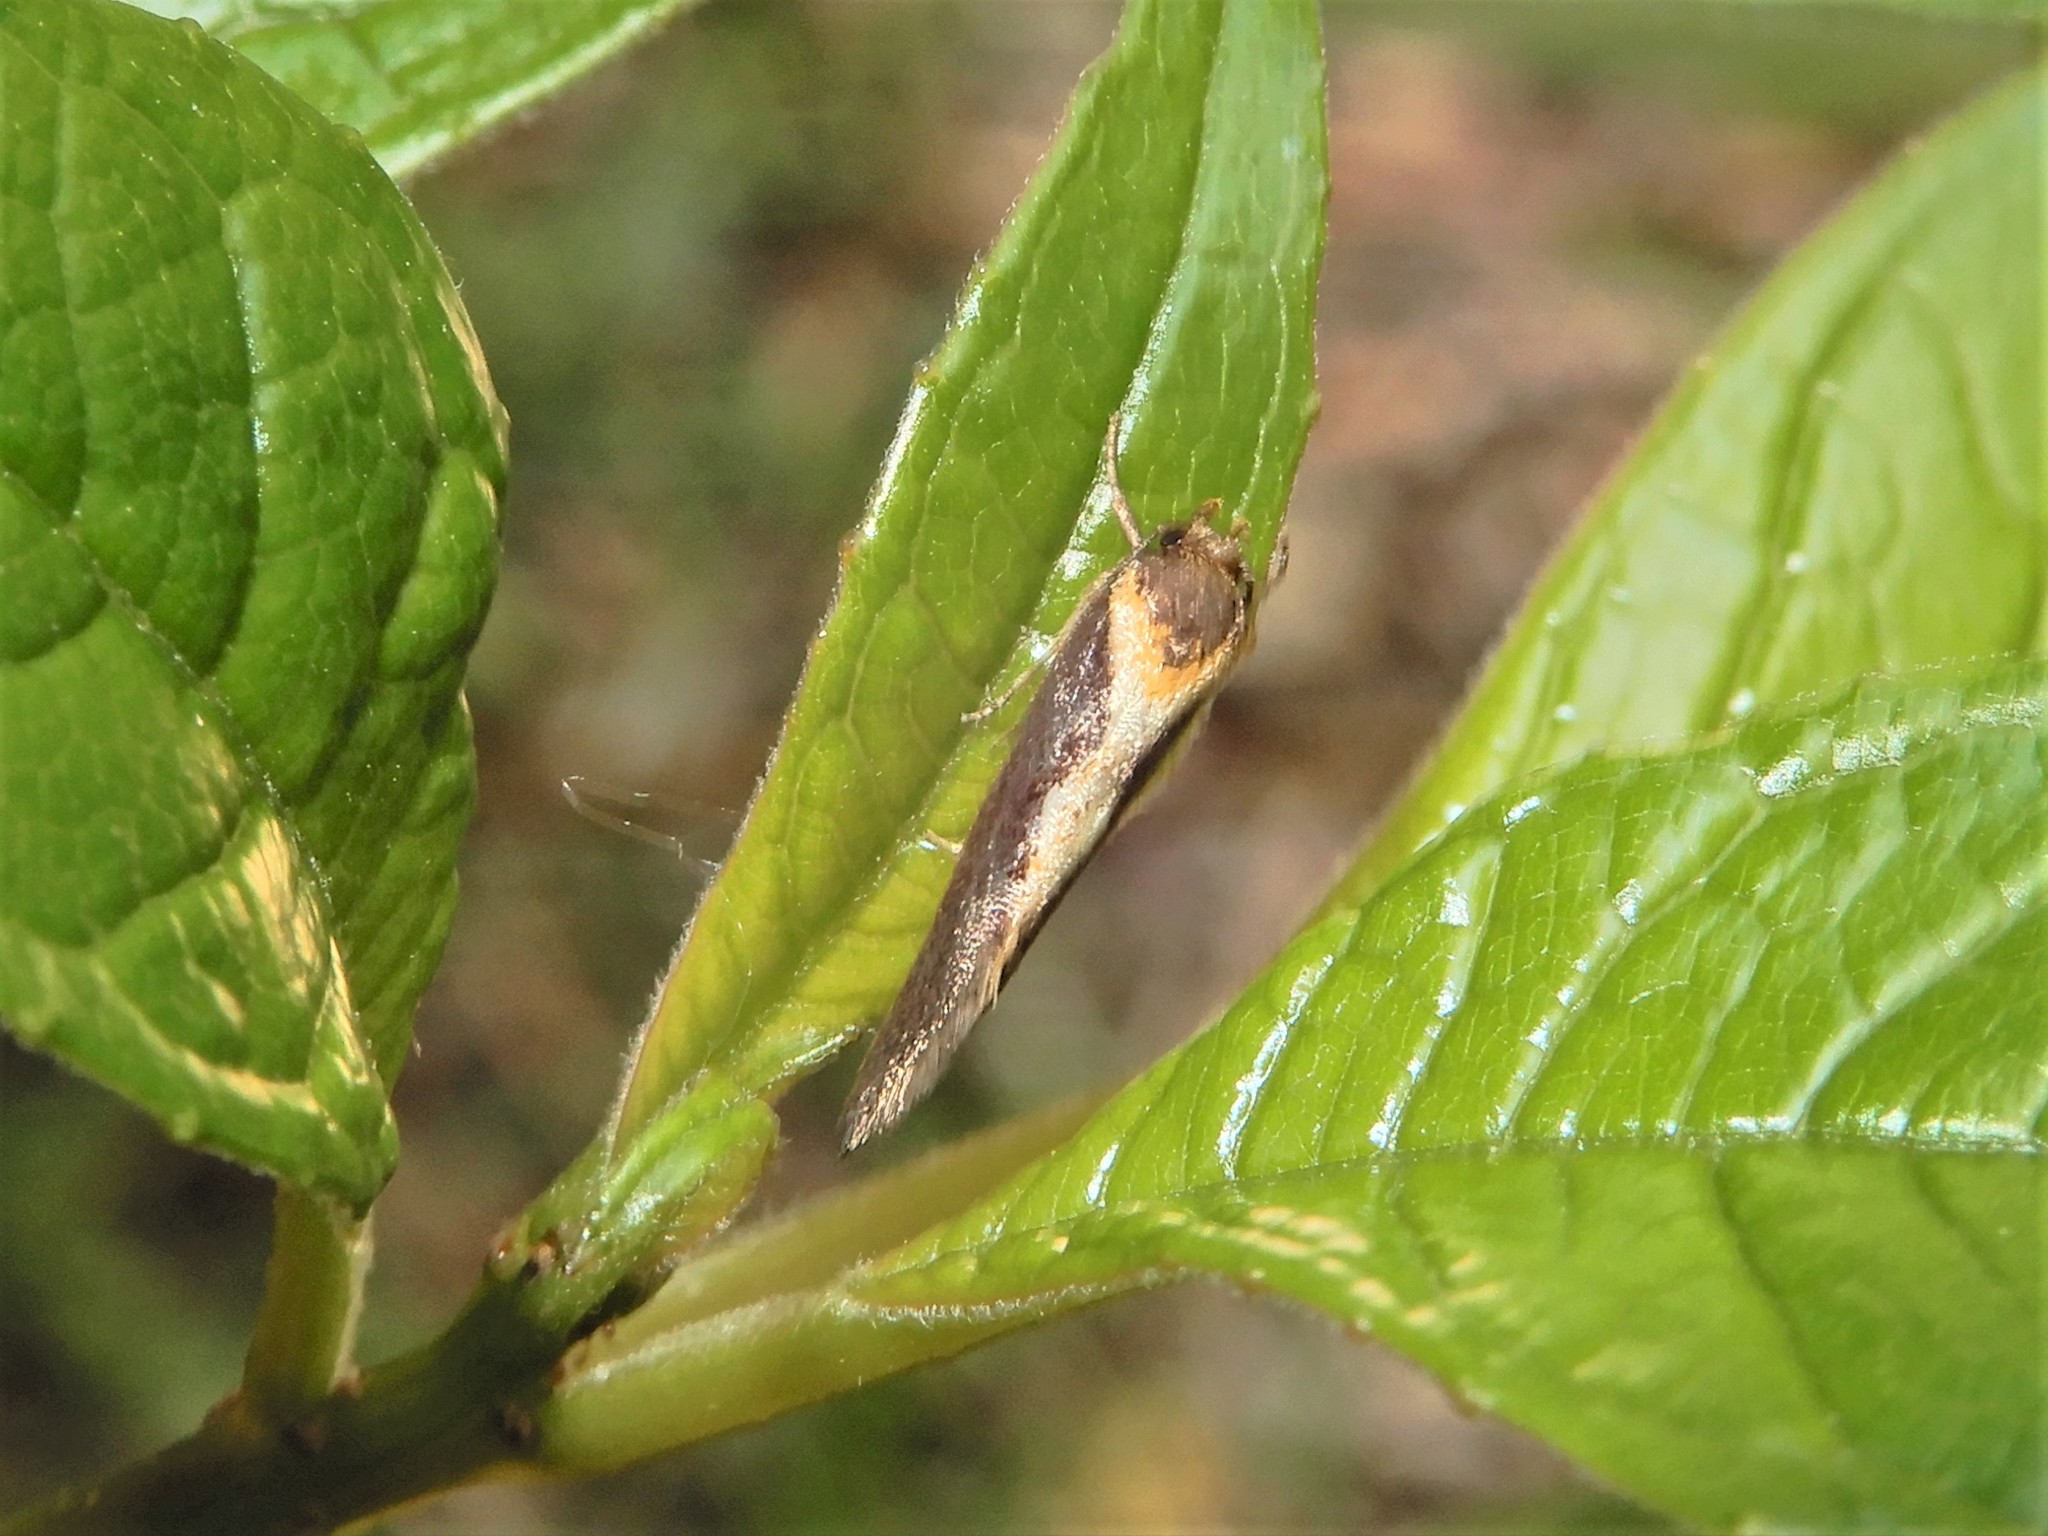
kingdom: Animalia
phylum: Arthropoda
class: Insecta
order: Lepidoptera
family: Oecophoridae
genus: Tingena
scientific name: Tingena basella
